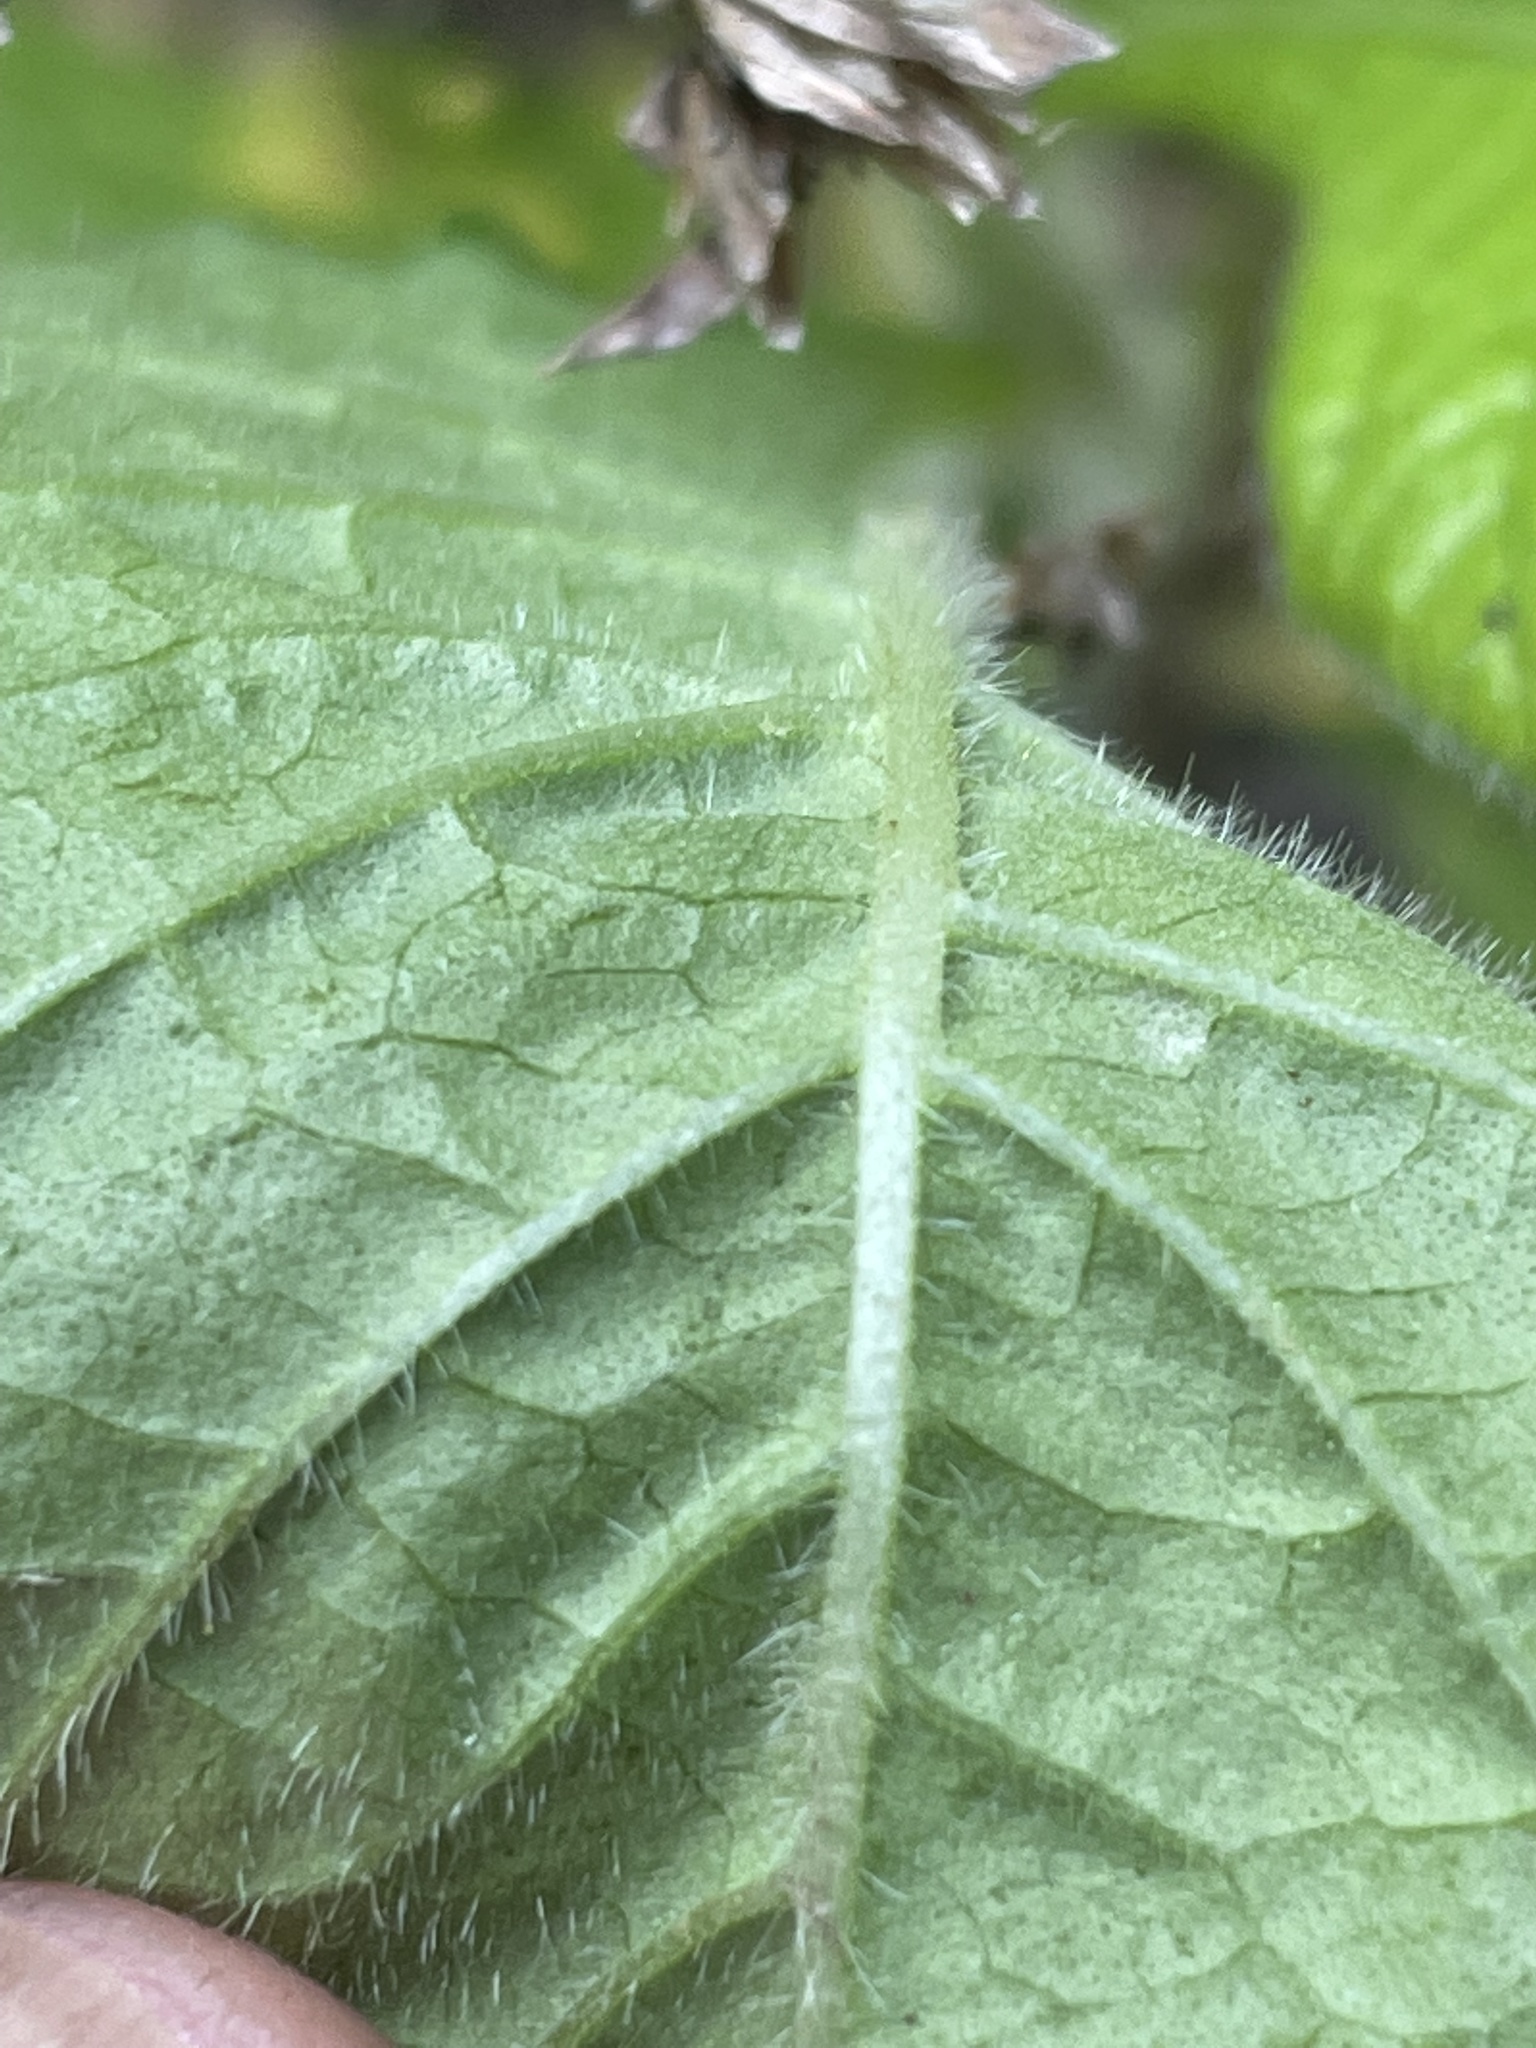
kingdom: Plantae
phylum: Tracheophyta
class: Magnoliopsida
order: Asterales
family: Asteraceae
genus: Elephantopus
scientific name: Elephantopus carolinianus
